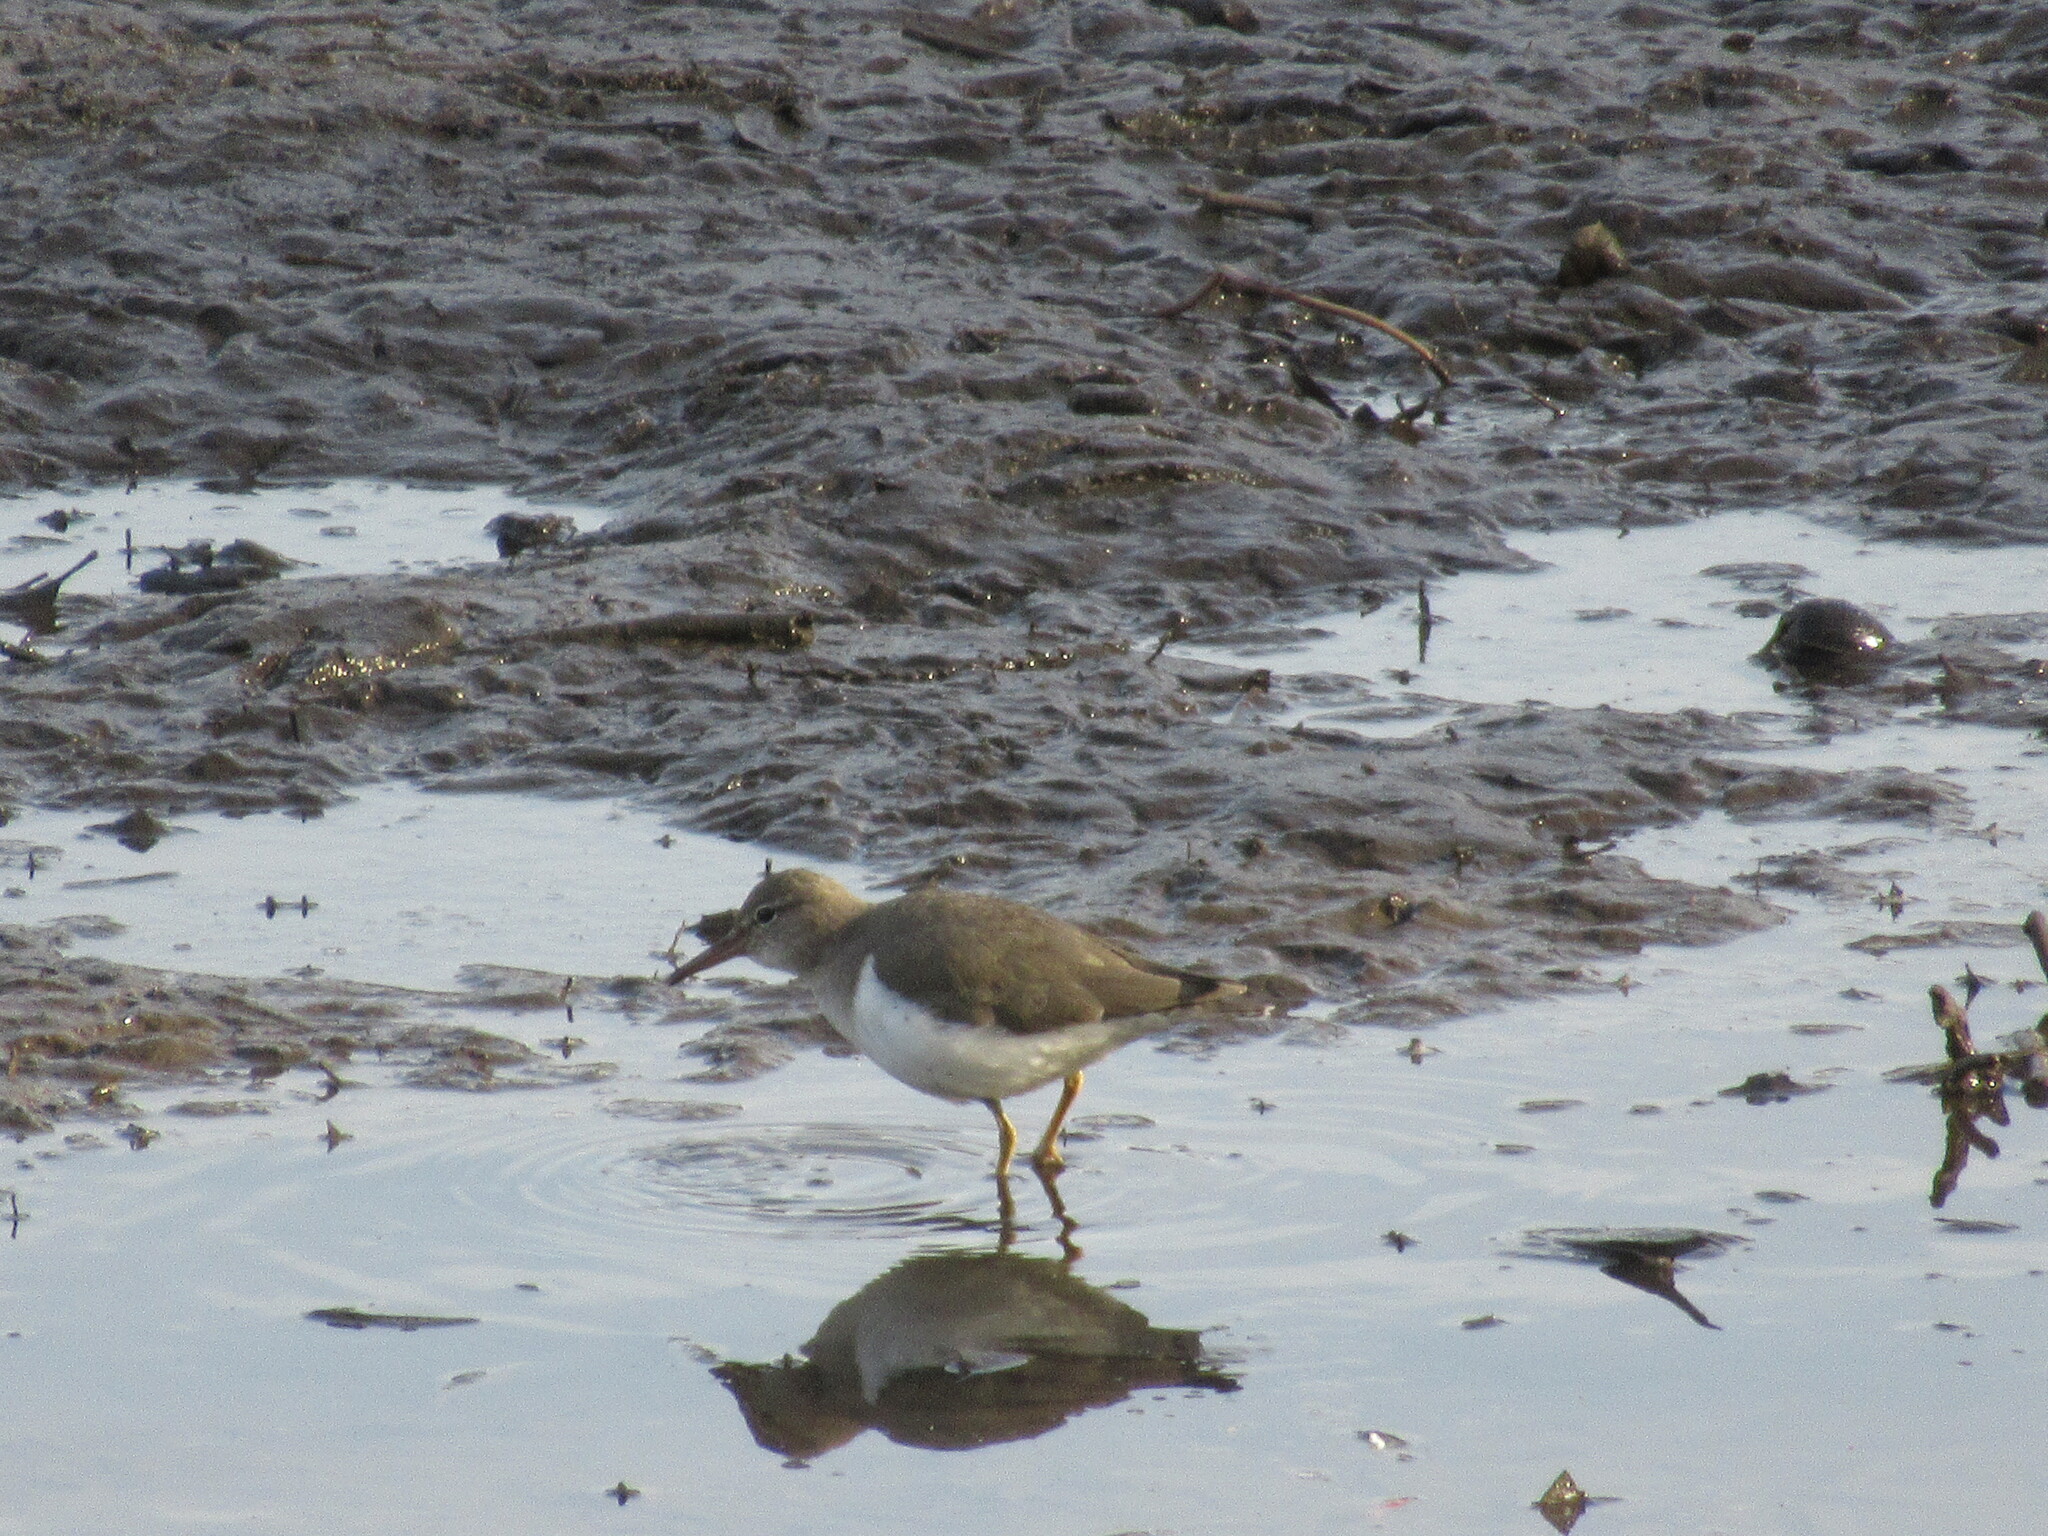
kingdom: Animalia
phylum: Chordata
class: Aves
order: Charadriiformes
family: Scolopacidae
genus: Actitis
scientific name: Actitis macularius
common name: Spotted sandpiper
